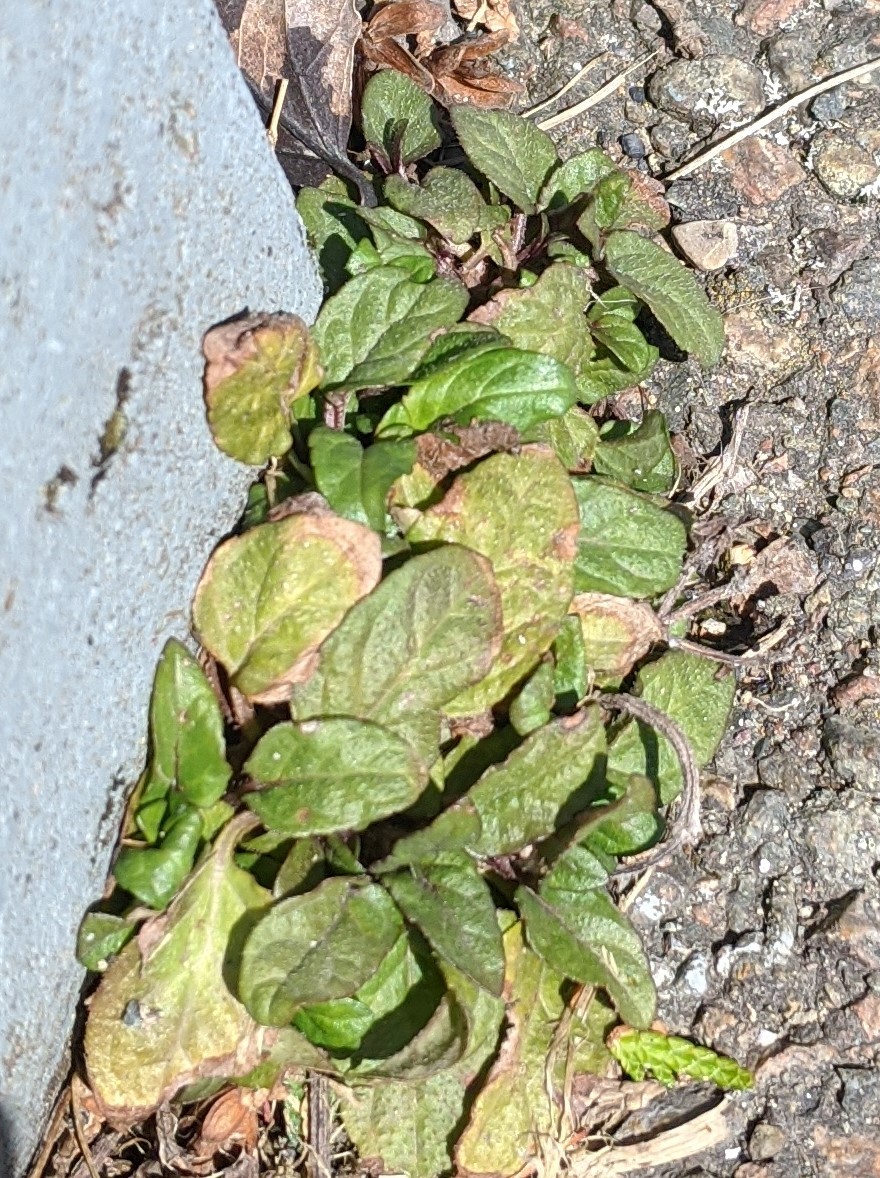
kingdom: Plantae
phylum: Tracheophyta
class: Magnoliopsida
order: Lamiales
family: Lamiaceae
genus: Prunella
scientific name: Prunella vulgaris
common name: Heal-all
